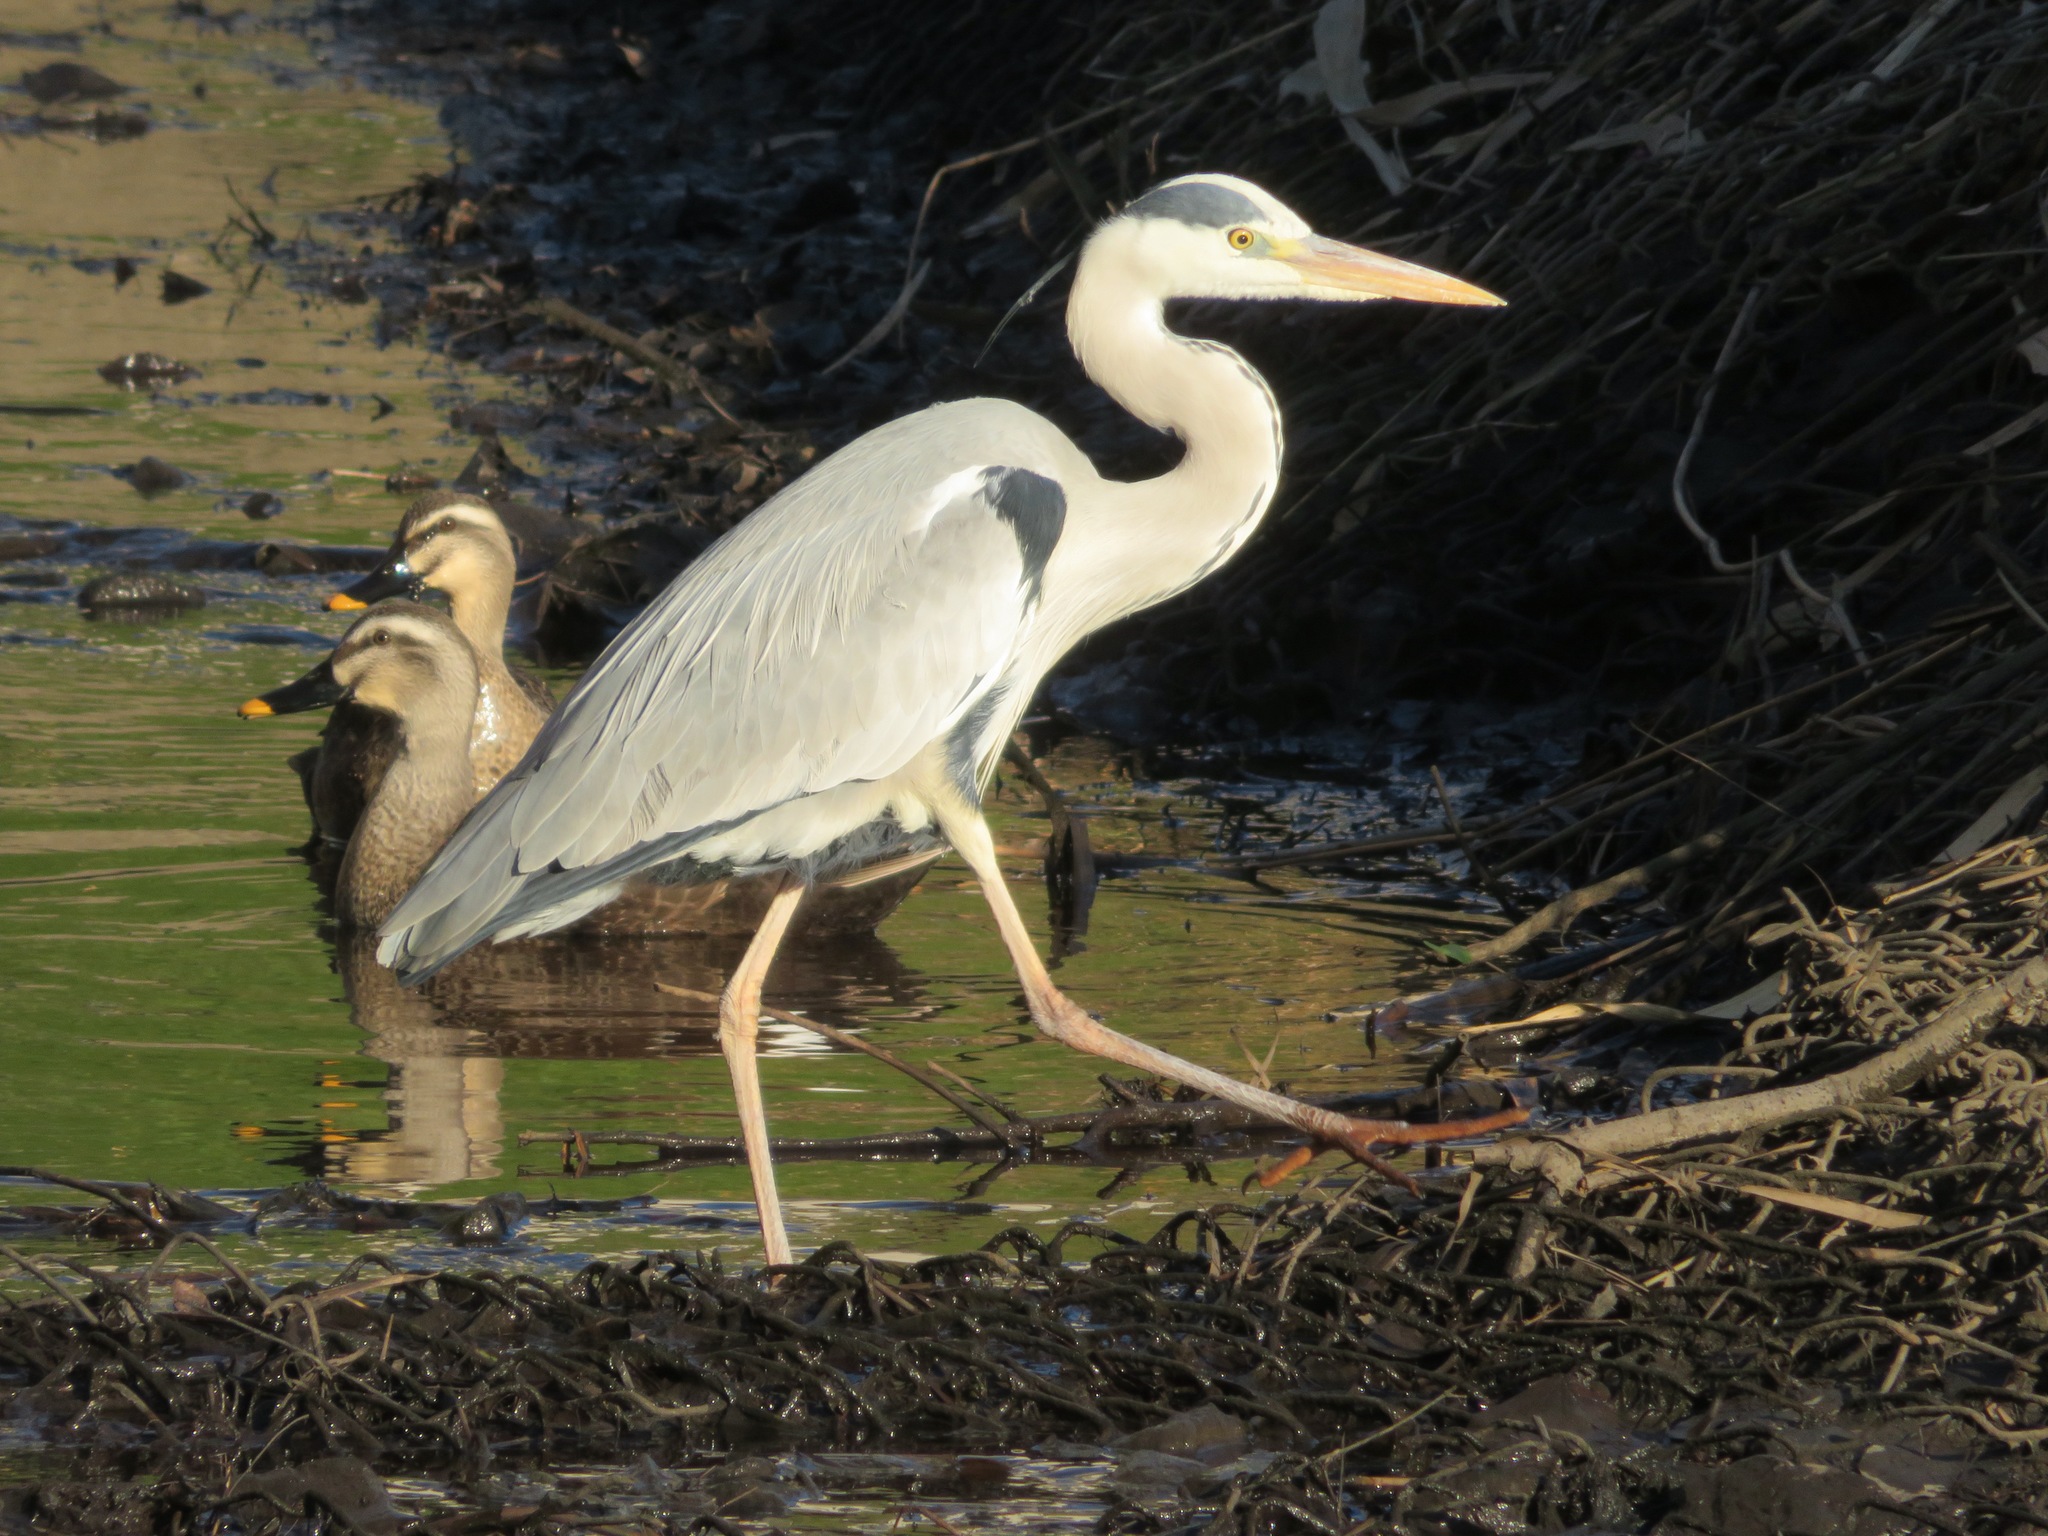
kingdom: Animalia
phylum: Chordata
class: Aves
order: Pelecaniformes
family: Ardeidae
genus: Ardea
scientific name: Ardea cinerea
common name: Grey heron
